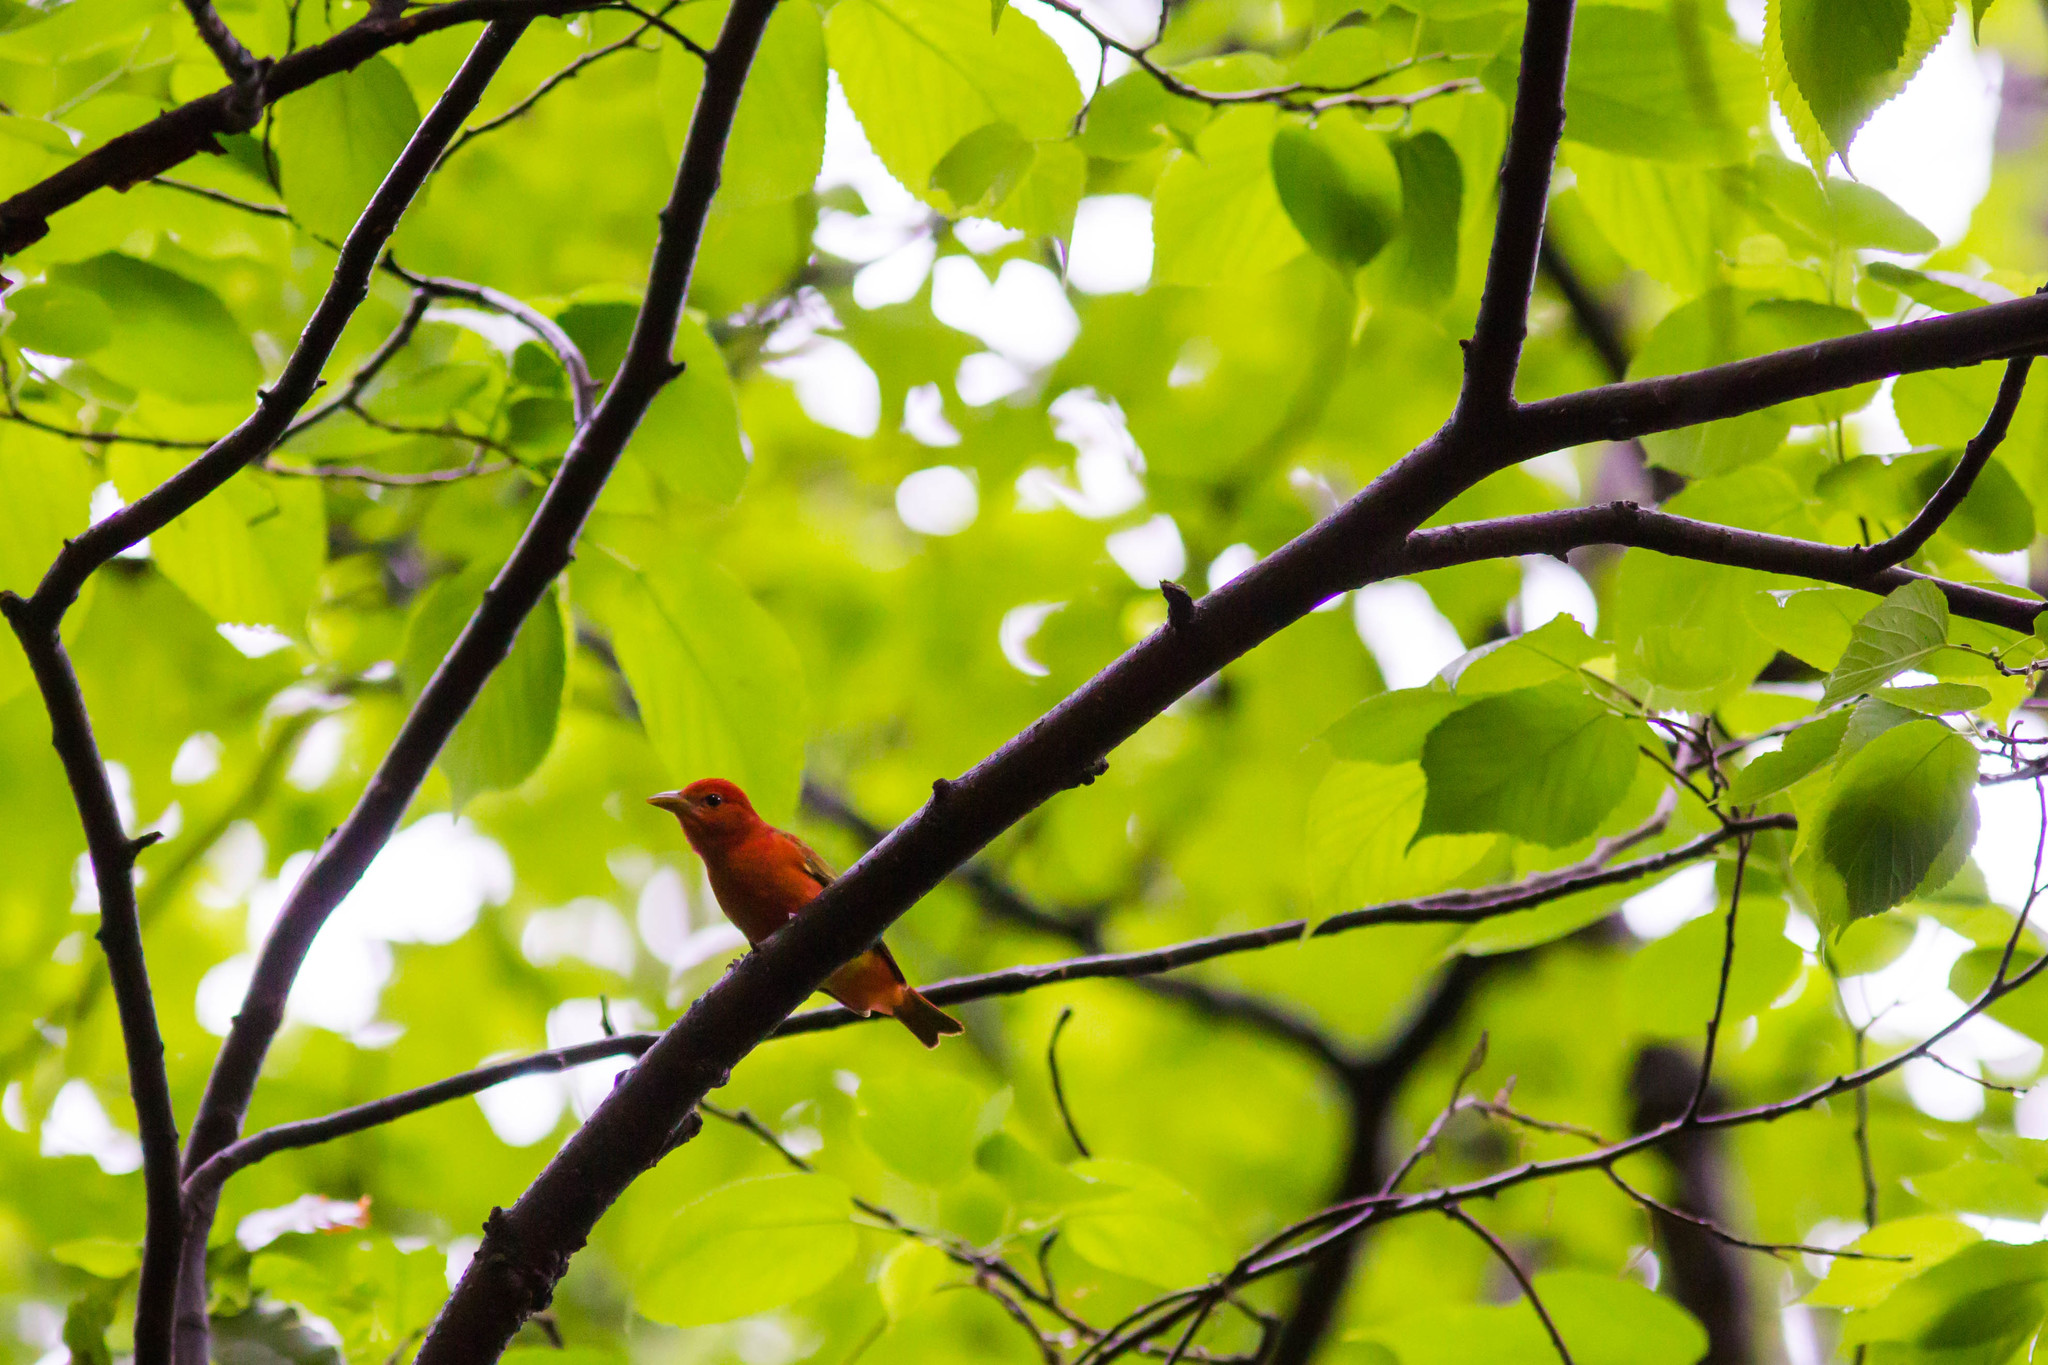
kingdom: Animalia
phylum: Chordata
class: Aves
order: Passeriformes
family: Cardinalidae
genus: Piranga
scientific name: Piranga rubra
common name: Summer tanager
